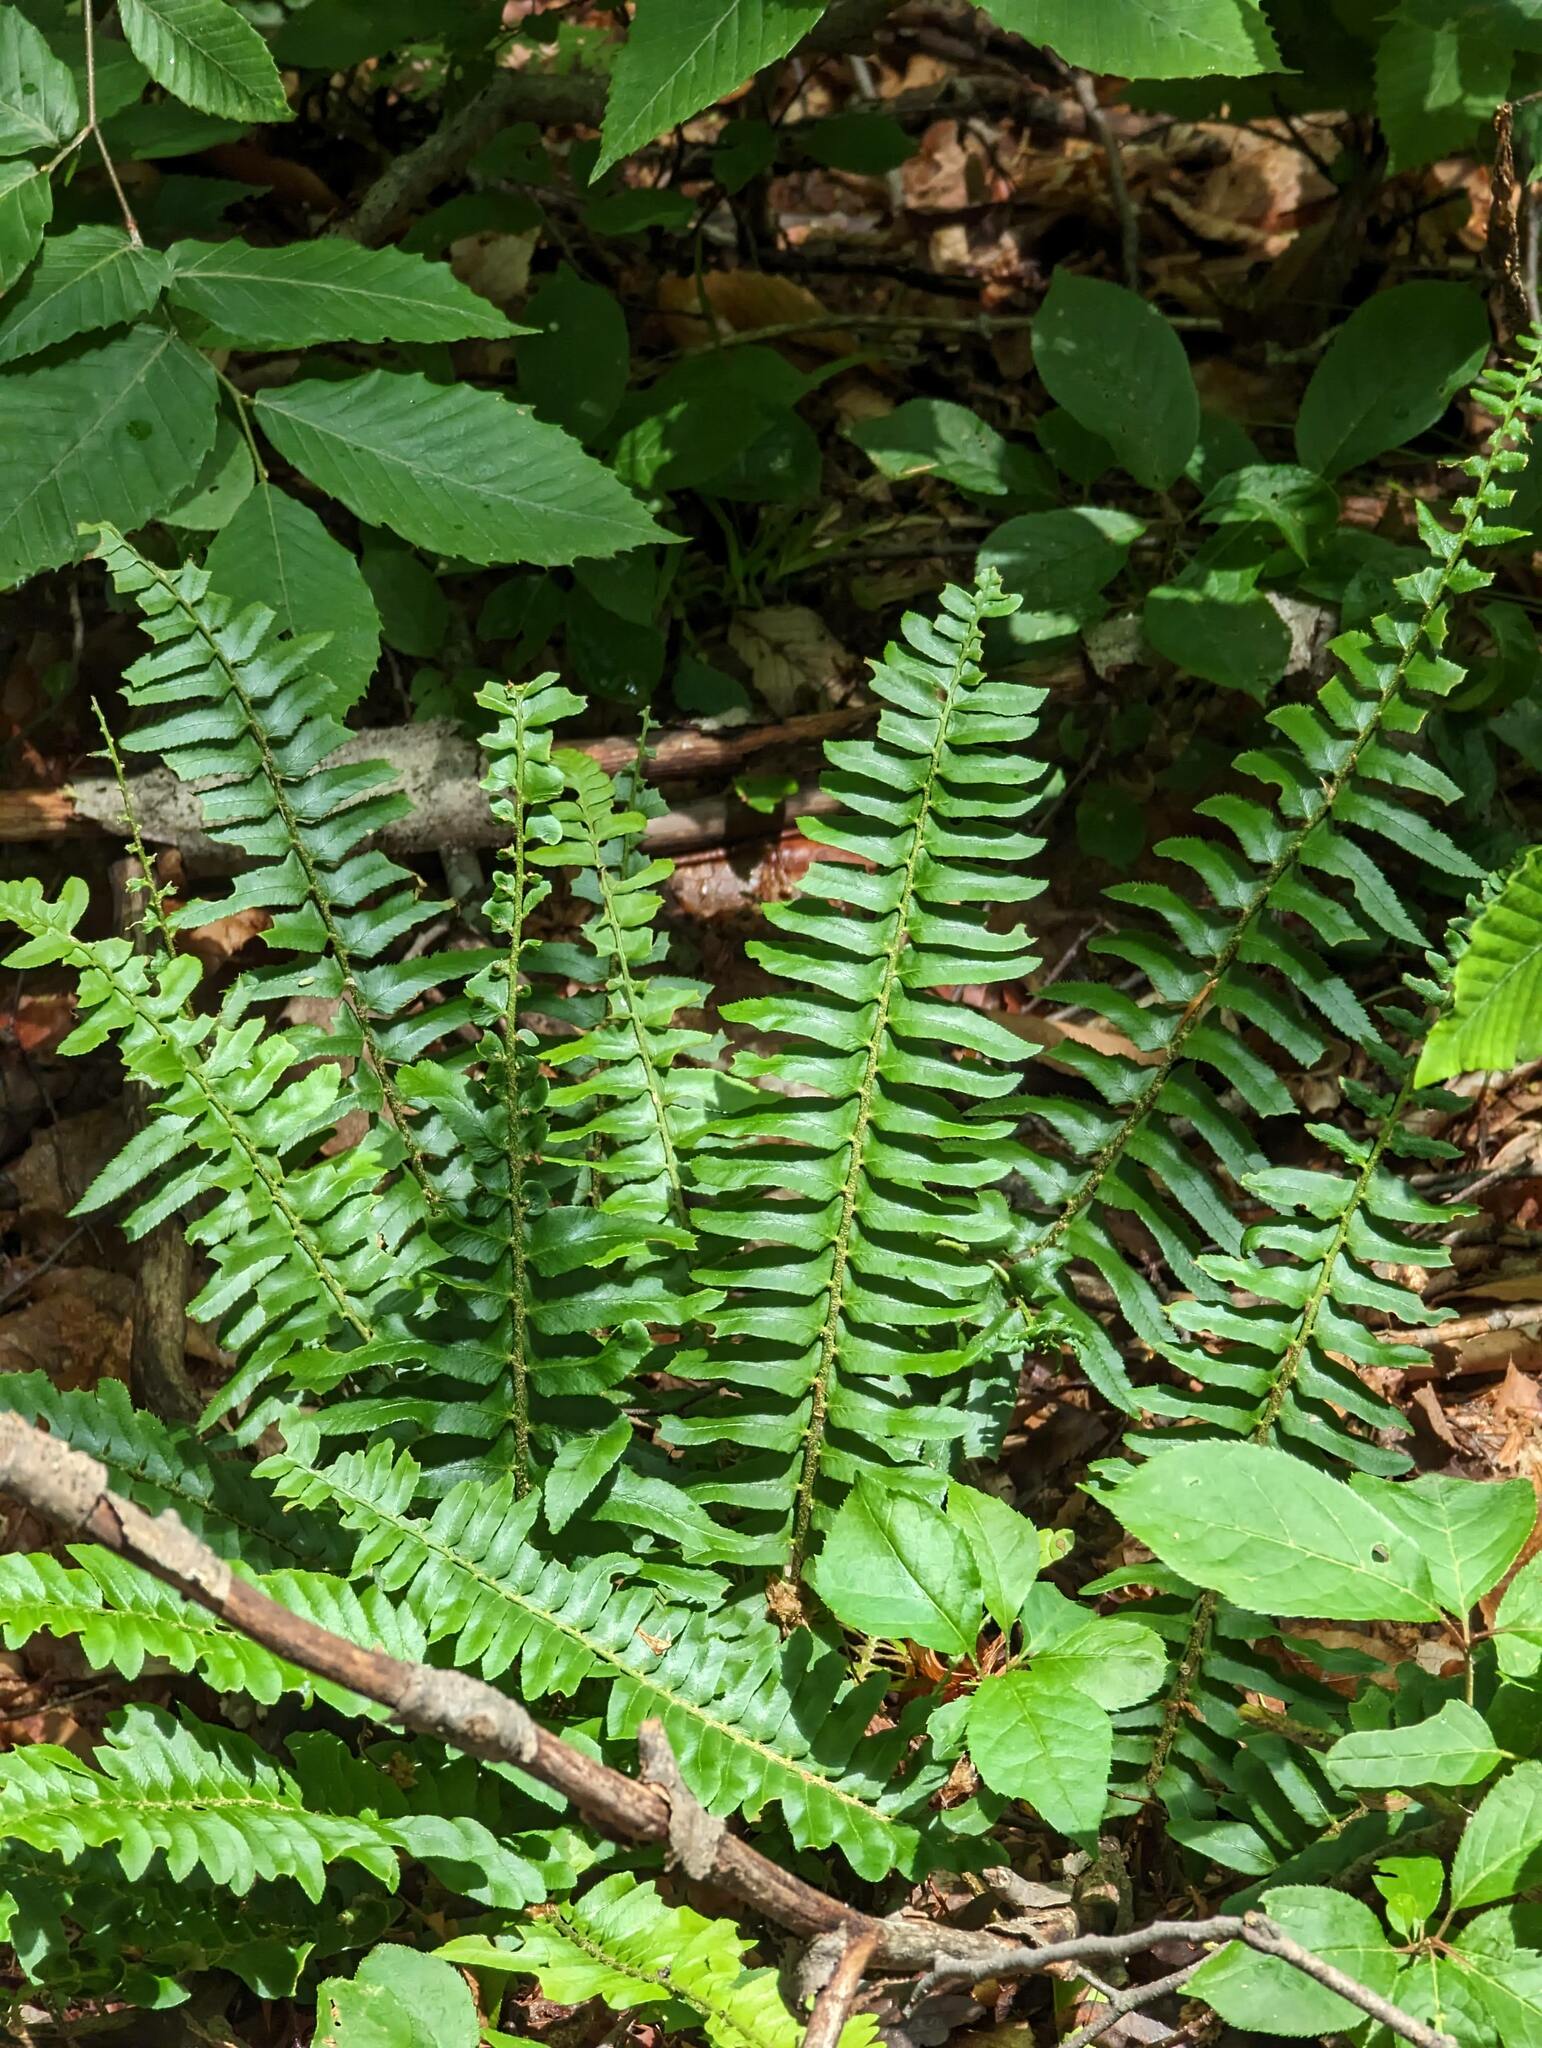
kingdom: Plantae
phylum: Tracheophyta
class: Polypodiopsida
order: Polypodiales
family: Dryopteridaceae
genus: Polystichum
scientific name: Polystichum acrostichoides
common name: Christmas fern
